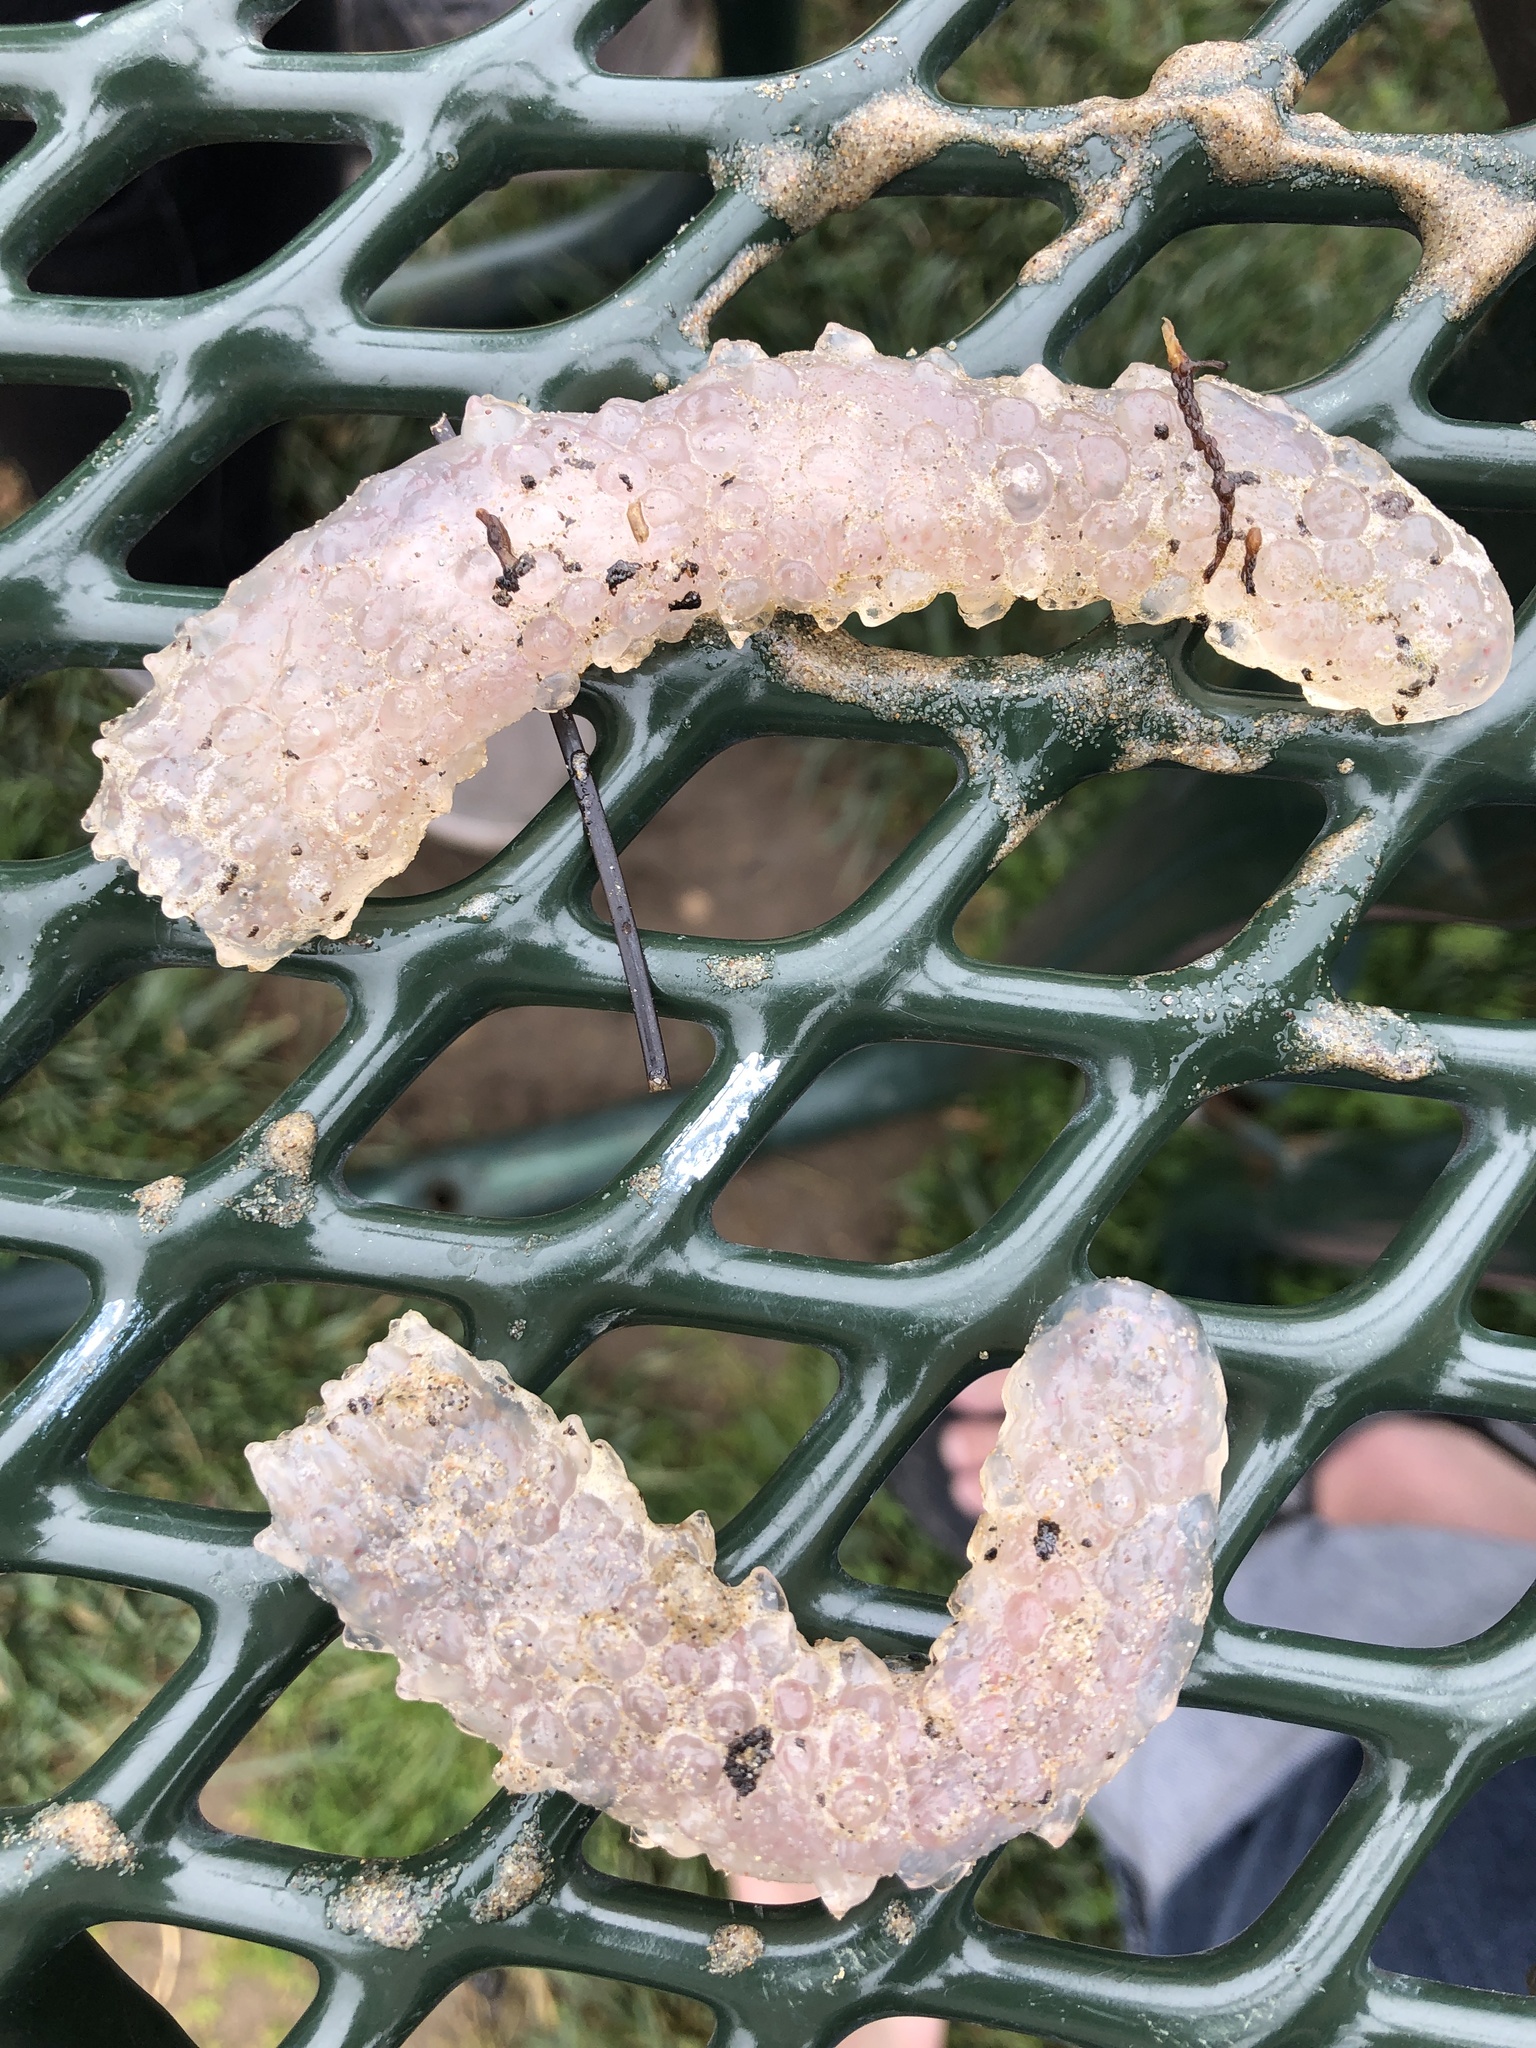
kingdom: Animalia
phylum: Chordata
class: Thaliacea
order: Pyrosomatida
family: Pyrosomatidae
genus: Pyrosoma
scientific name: Pyrosoma atlanticum
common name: Atlantic pyrosomes
